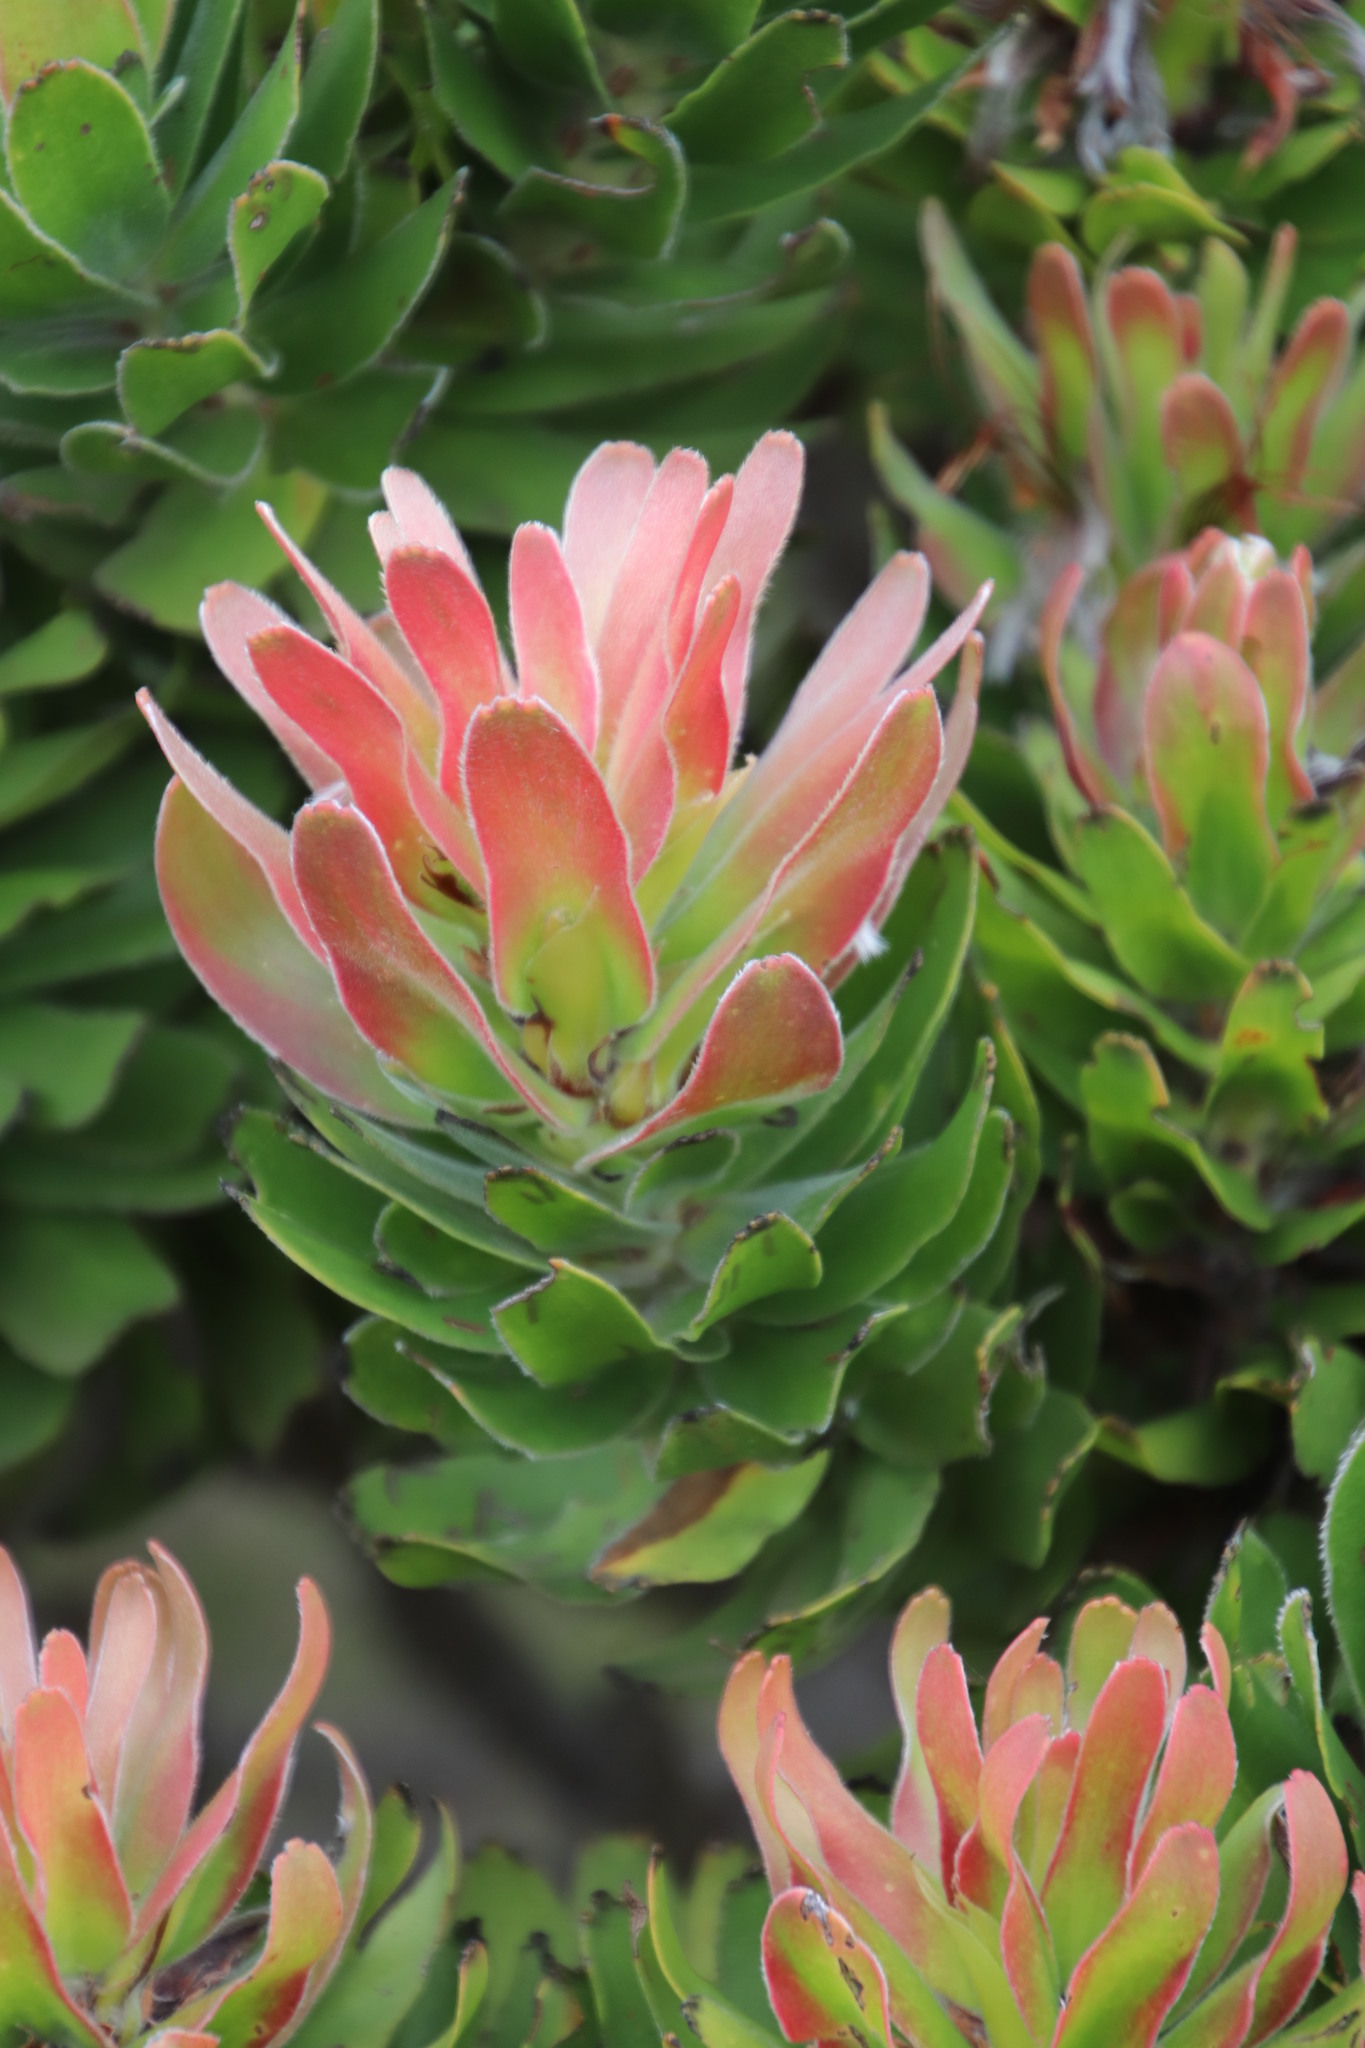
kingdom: Plantae
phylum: Tracheophyta
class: Magnoliopsida
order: Proteales
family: Proteaceae
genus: Mimetes
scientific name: Mimetes fimbriifolius
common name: Fringed bottlebrush
